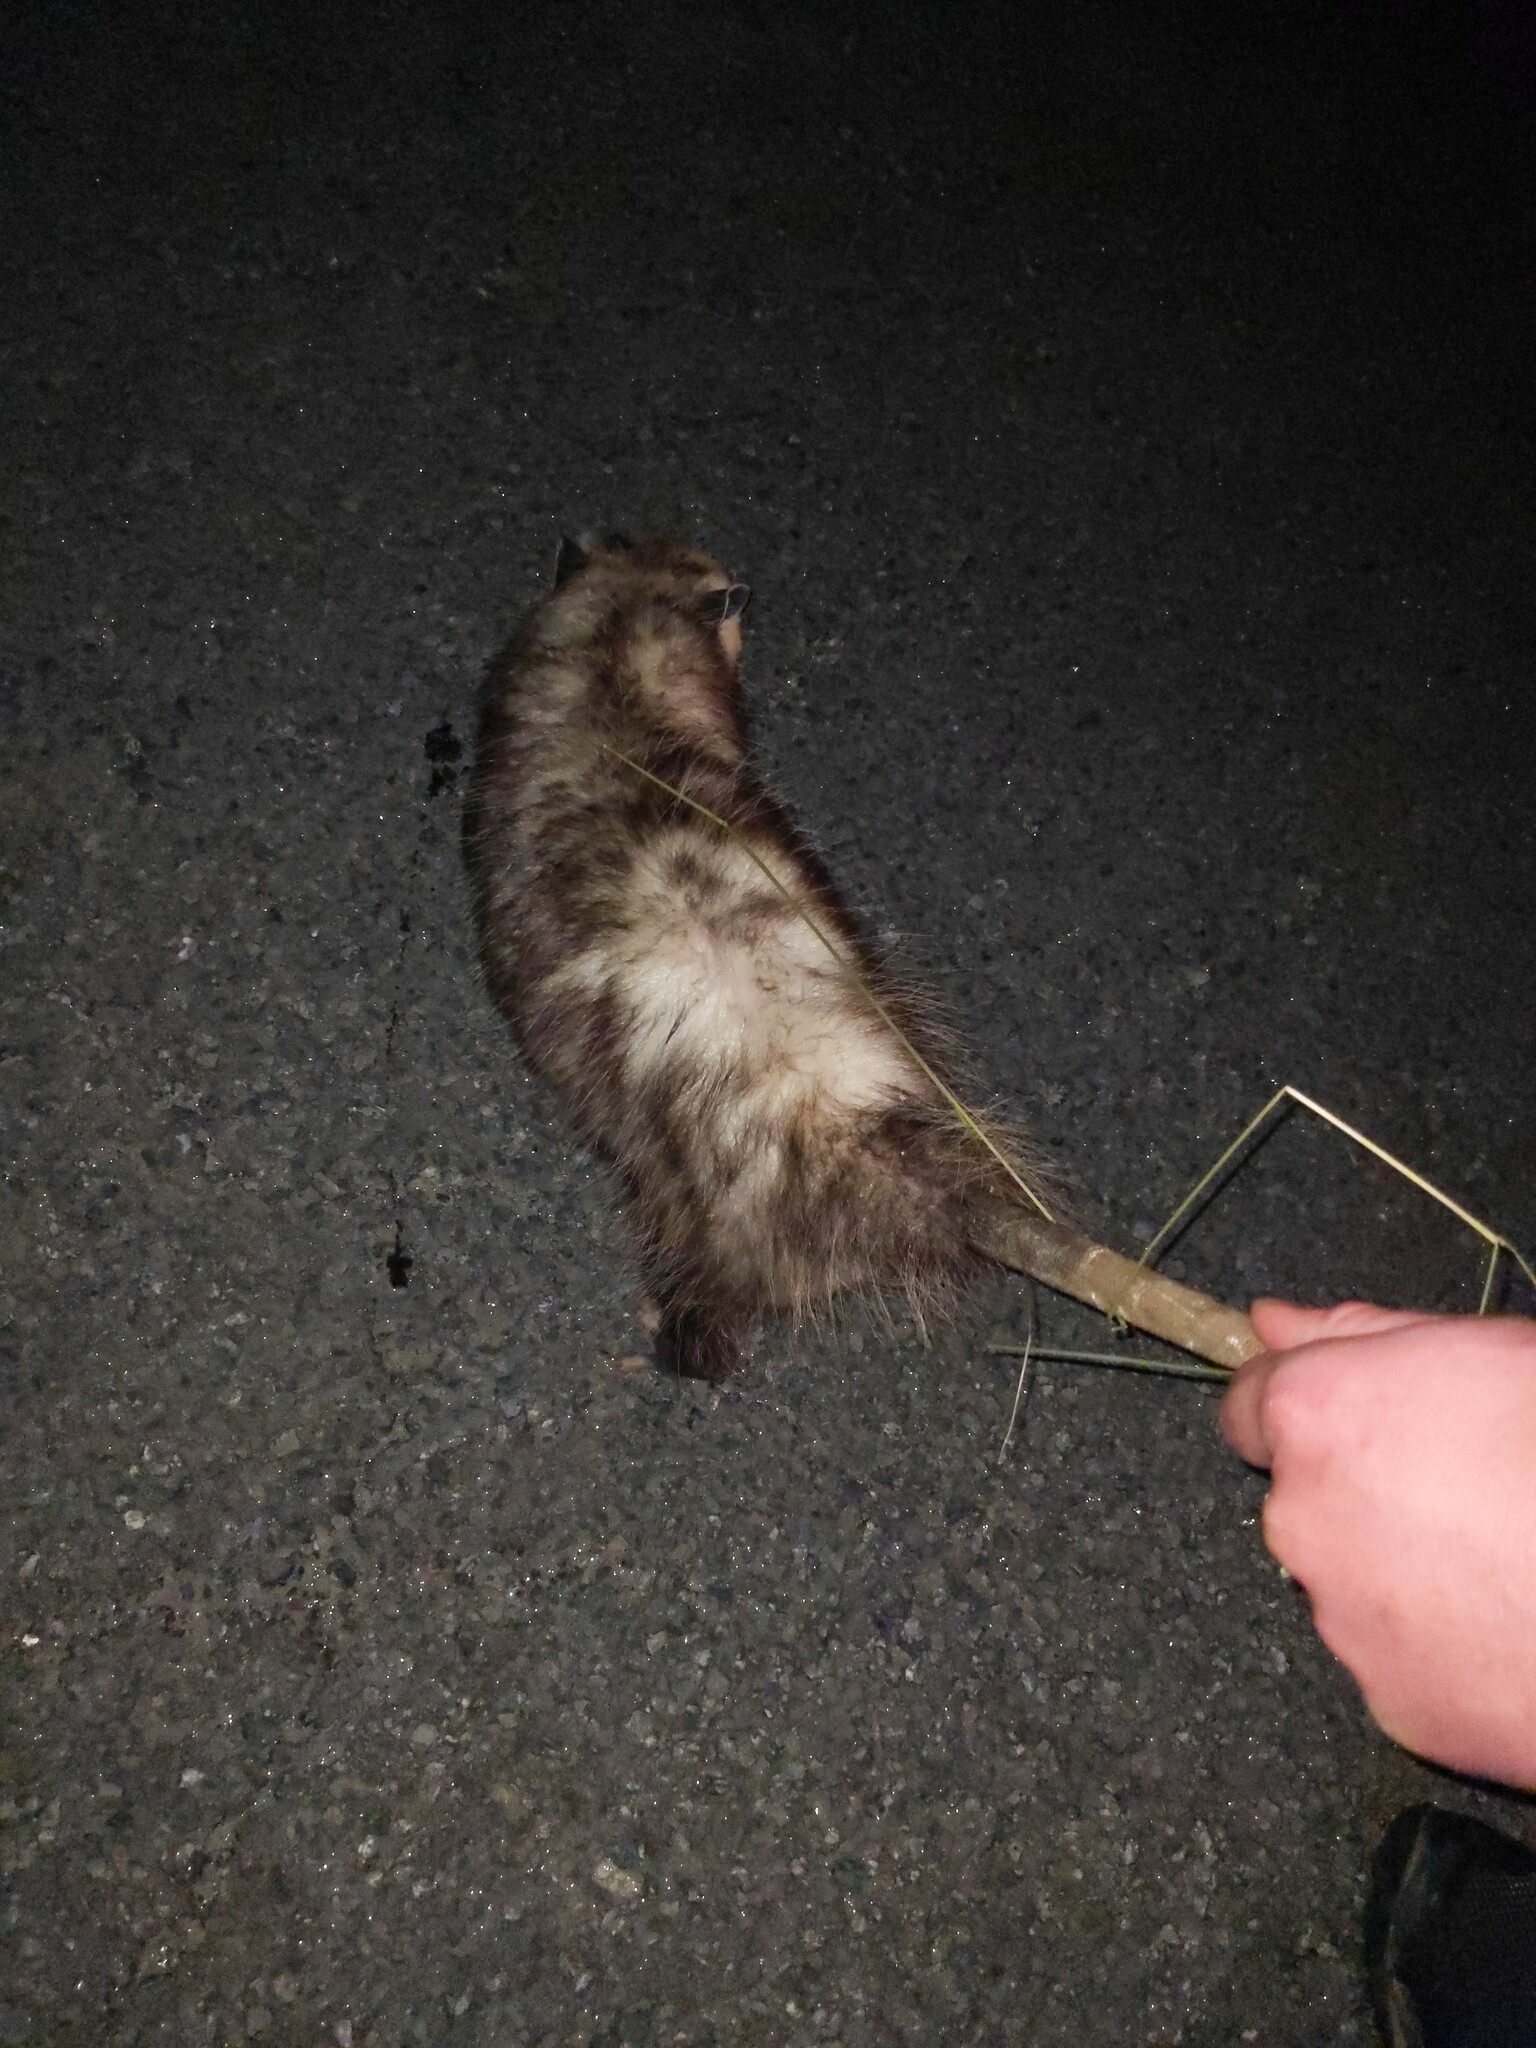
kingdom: Animalia
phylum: Chordata
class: Mammalia
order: Didelphimorphia
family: Didelphidae
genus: Didelphis
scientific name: Didelphis virginiana
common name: Virginia opossum
